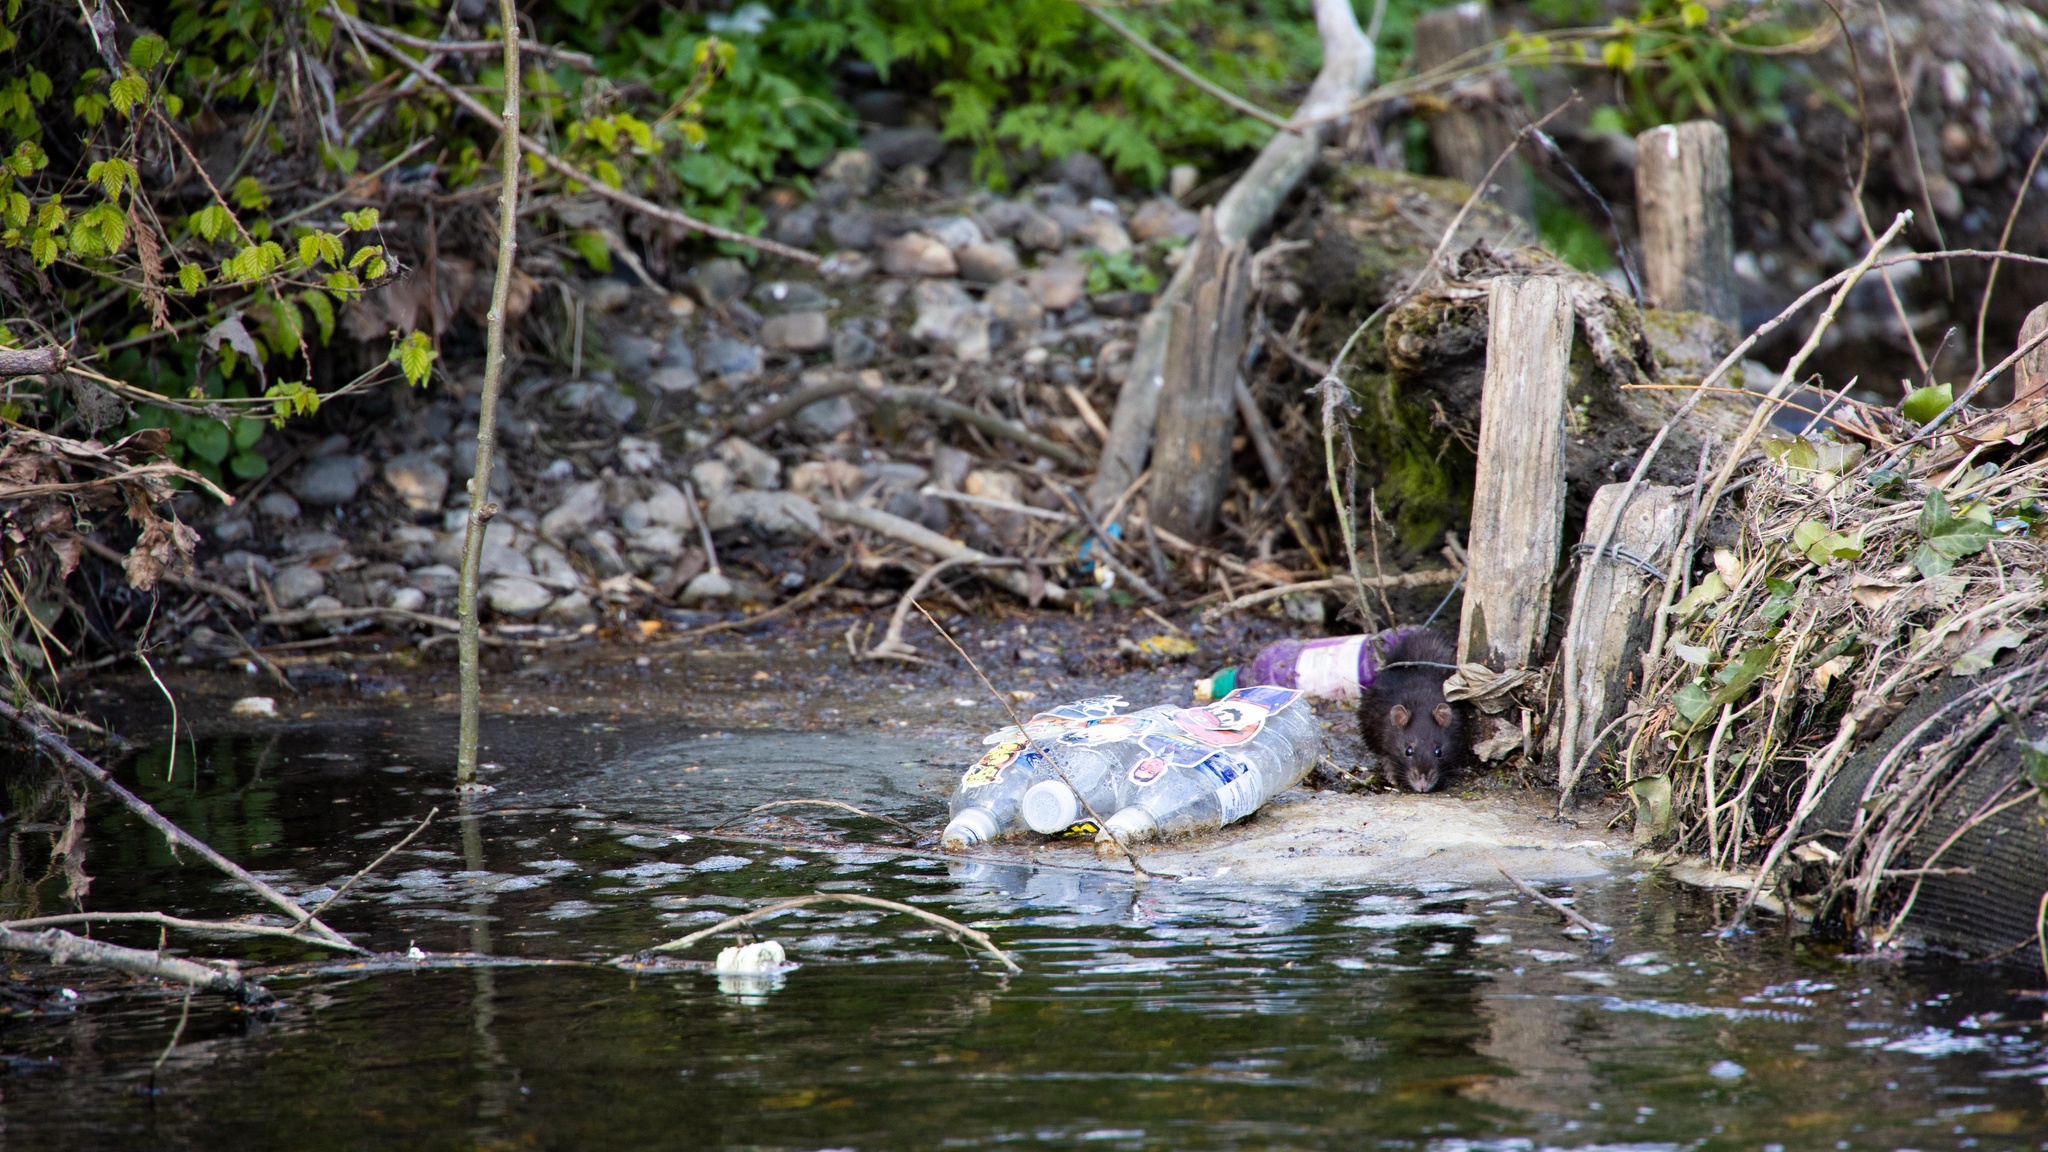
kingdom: Animalia
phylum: Chordata
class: Mammalia
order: Rodentia
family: Muridae
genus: Rattus
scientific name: Rattus norvegicus
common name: Brown rat
